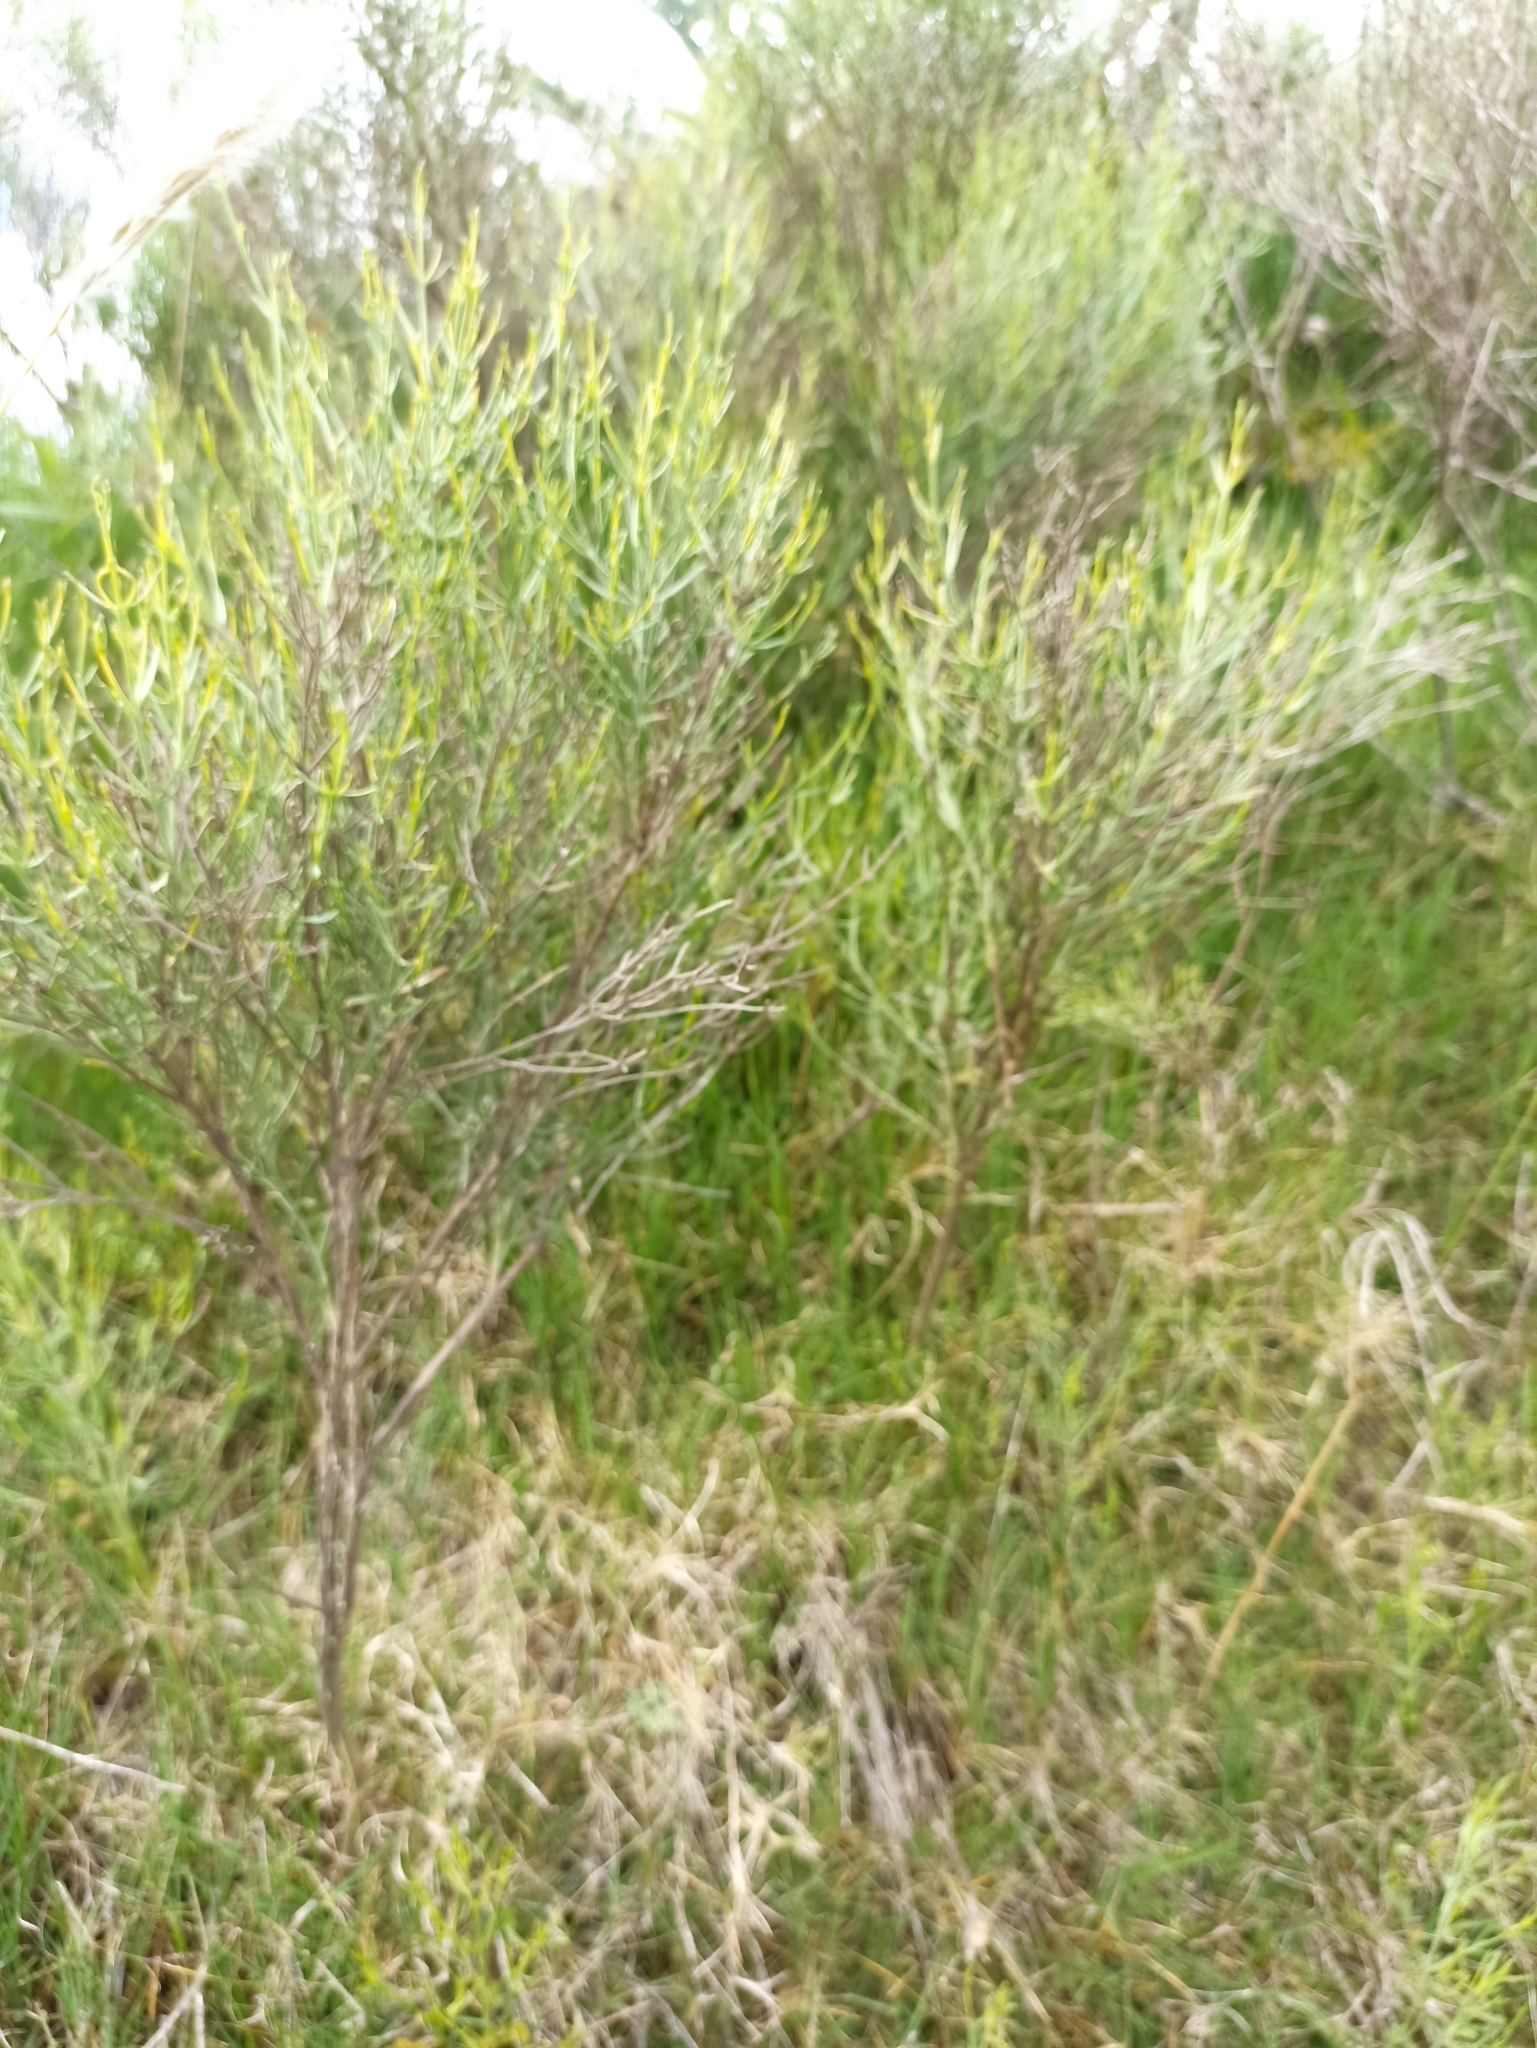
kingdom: Plantae
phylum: Tracheophyta
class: Magnoliopsida
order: Asterales
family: Asteraceae
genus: Baccharis
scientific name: Baccharis articulata
